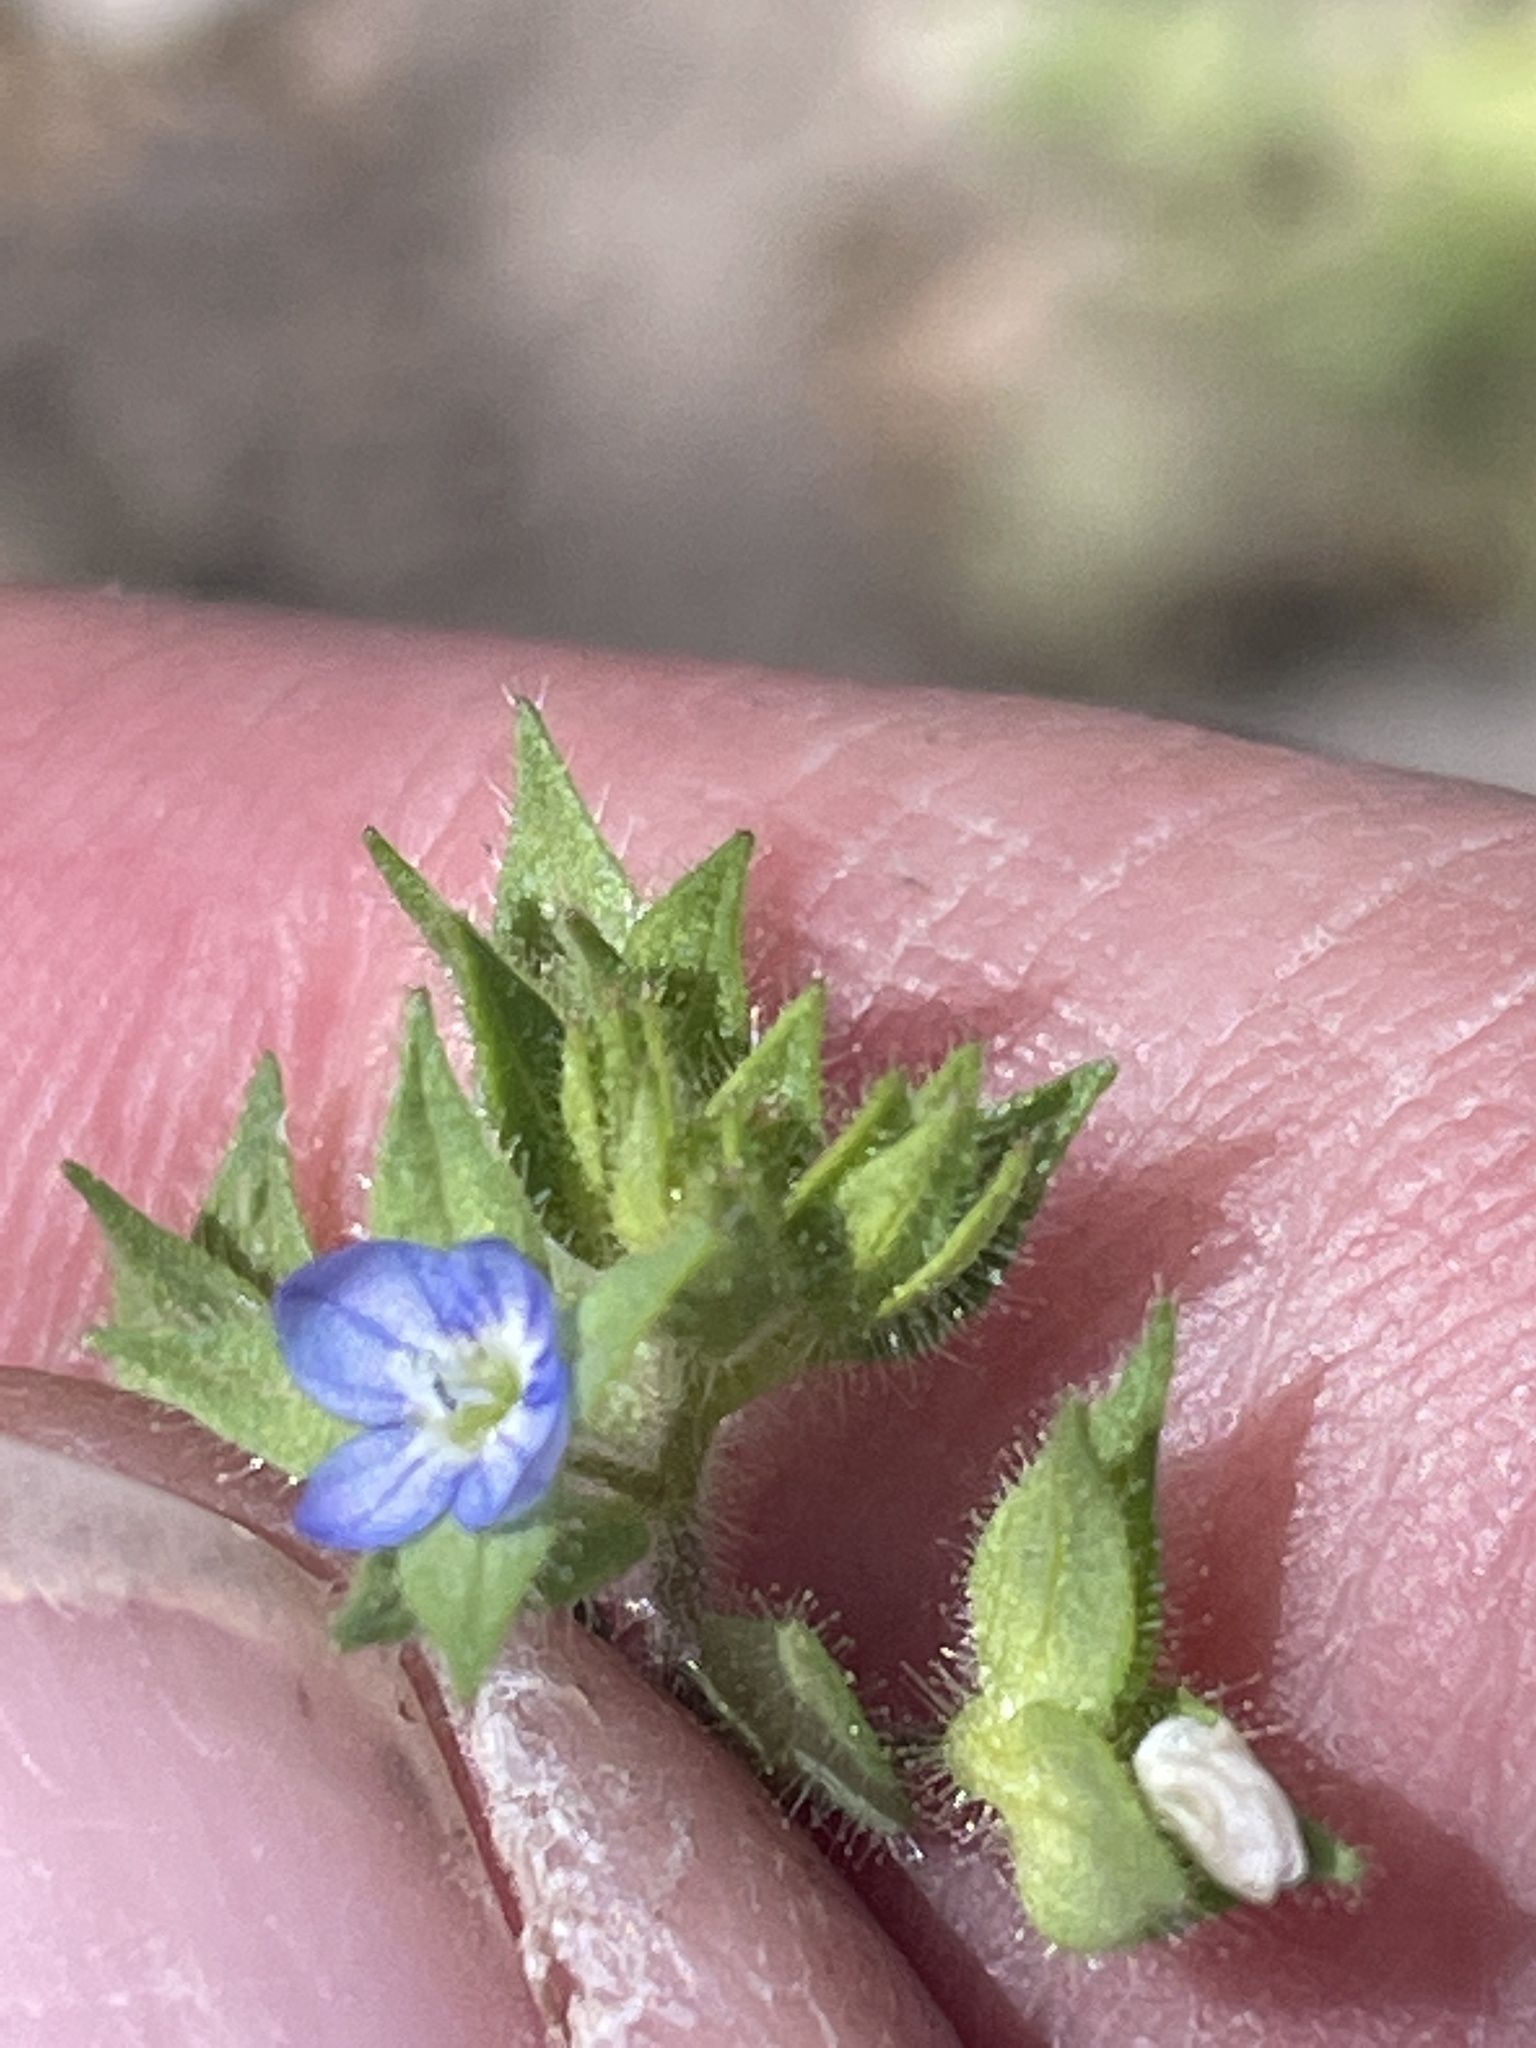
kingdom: Plantae
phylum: Tracheophyta
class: Magnoliopsida
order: Lamiales
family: Plantaginaceae
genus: Veronica
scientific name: Veronica biloba
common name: Twolobe speedwell
